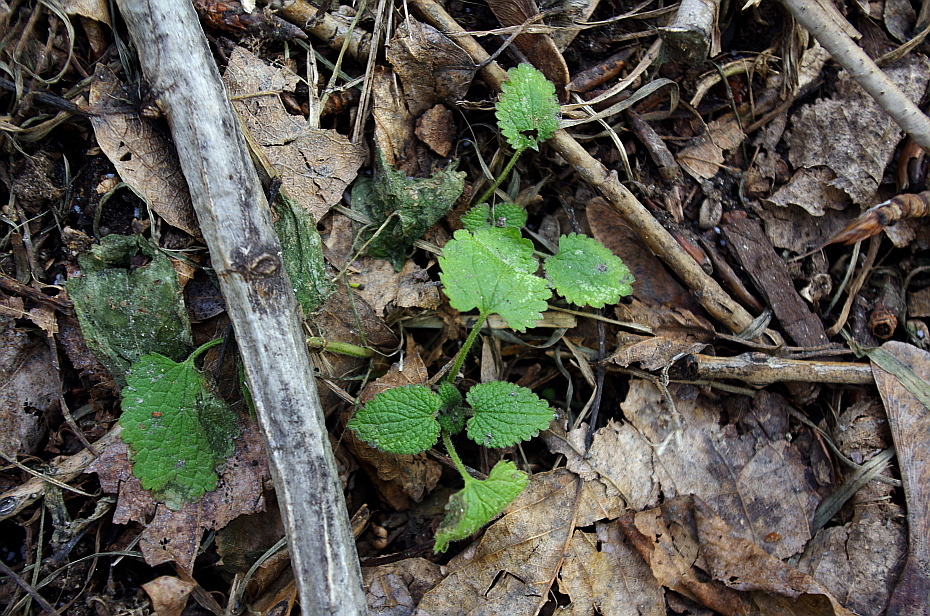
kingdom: Plantae
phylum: Tracheophyta
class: Magnoliopsida
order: Lamiales
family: Lamiaceae
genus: Lamium
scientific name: Lamium album
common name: White dead-nettle
